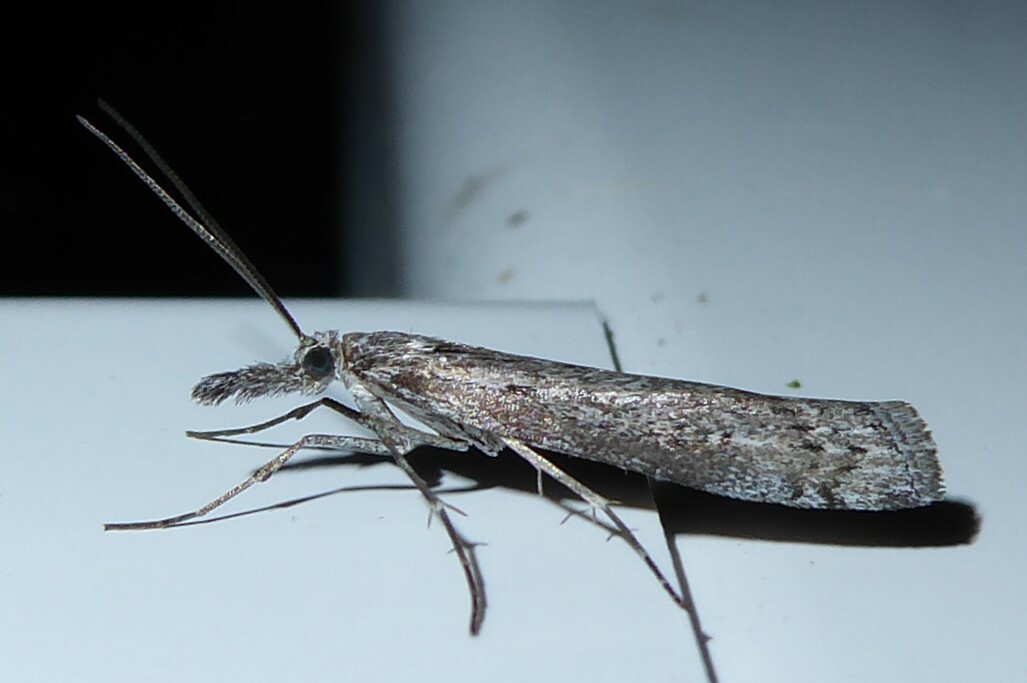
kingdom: Animalia
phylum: Arthropoda
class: Insecta
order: Lepidoptera
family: Crambidae
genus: Orocrambus
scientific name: Orocrambus cyclopicus
